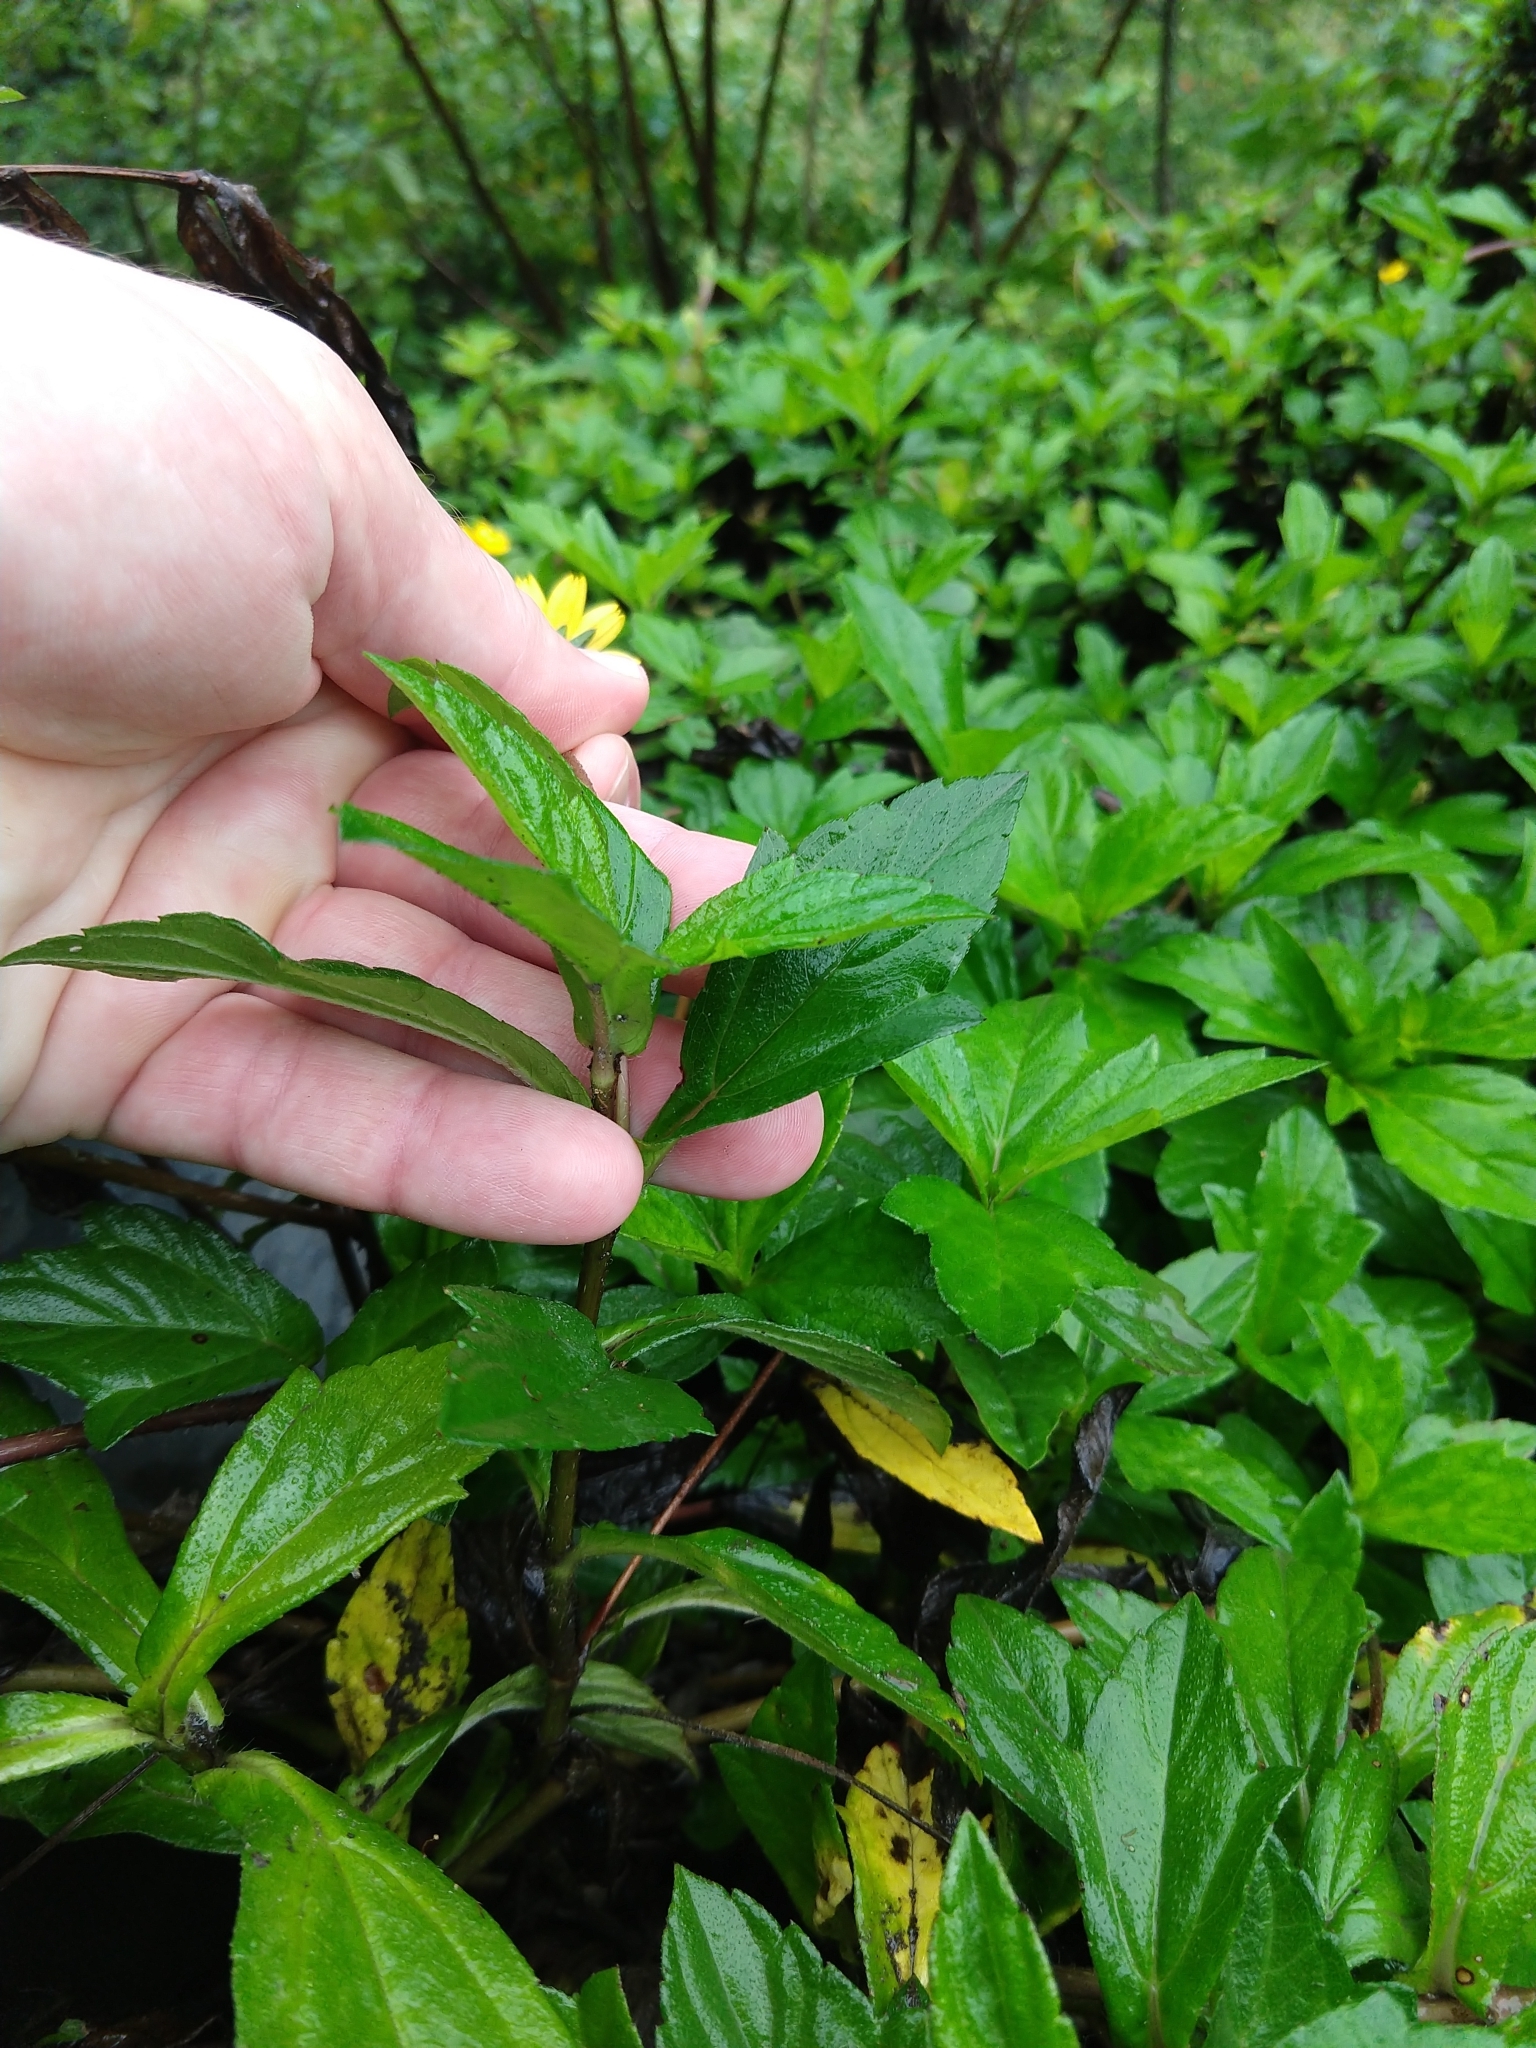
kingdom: Plantae
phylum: Tracheophyta
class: Magnoliopsida
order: Asterales
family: Asteraceae
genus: Sphagneticola
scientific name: Sphagneticola trilobata
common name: Bay biscayne creeping-oxeye
